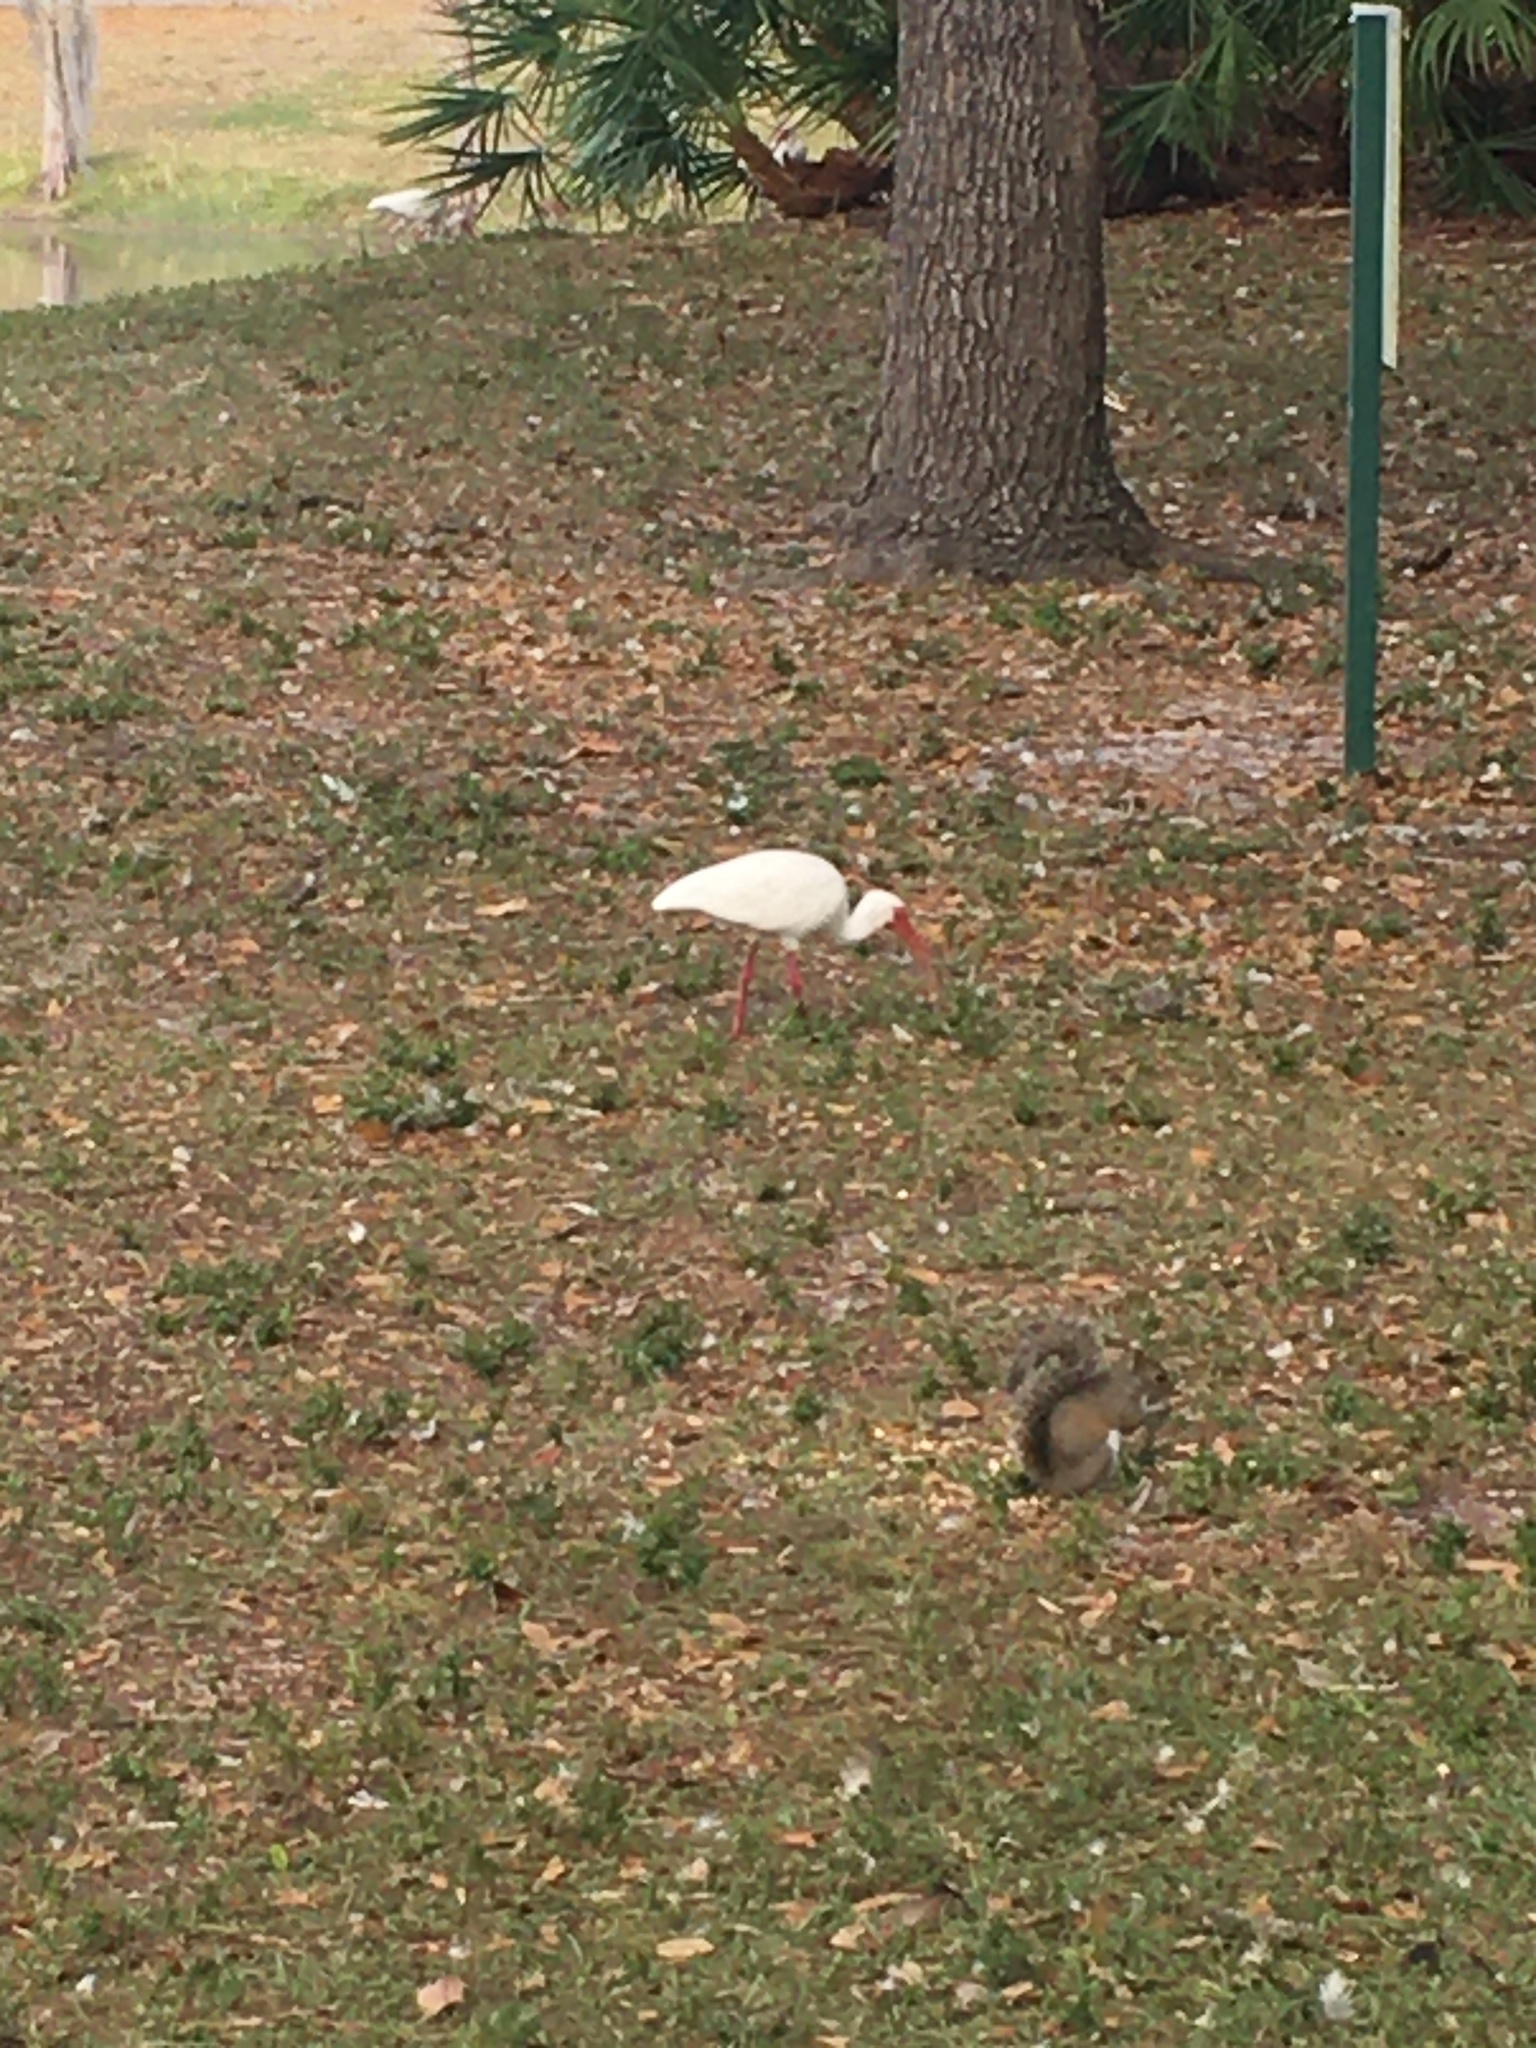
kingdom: Animalia
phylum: Chordata
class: Aves
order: Pelecaniformes
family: Threskiornithidae
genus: Eudocimus
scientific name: Eudocimus albus
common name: White ibis
